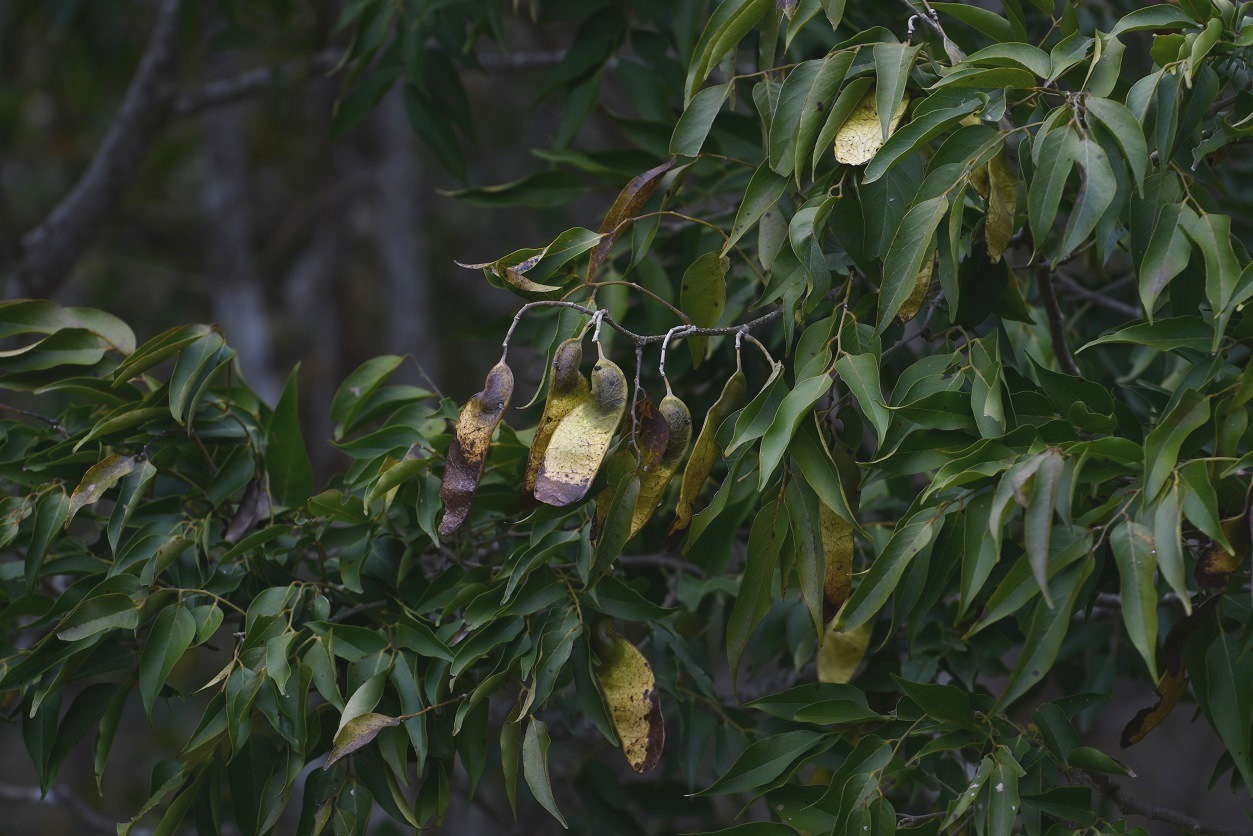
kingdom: Plantae
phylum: Tracheophyta
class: Magnoliopsida
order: Fabales
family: Fabaceae
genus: Lonchocarpus
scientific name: Lonchocarpus sumiderensis
